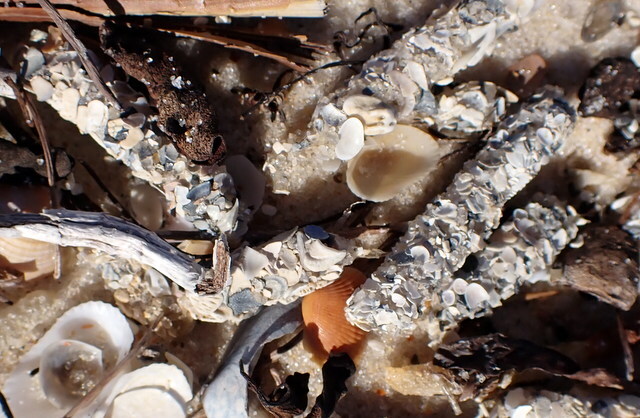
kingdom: Animalia
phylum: Annelida
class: Polychaeta
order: Eunicida
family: Onuphidae
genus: Diopatra
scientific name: Diopatra cuprea
